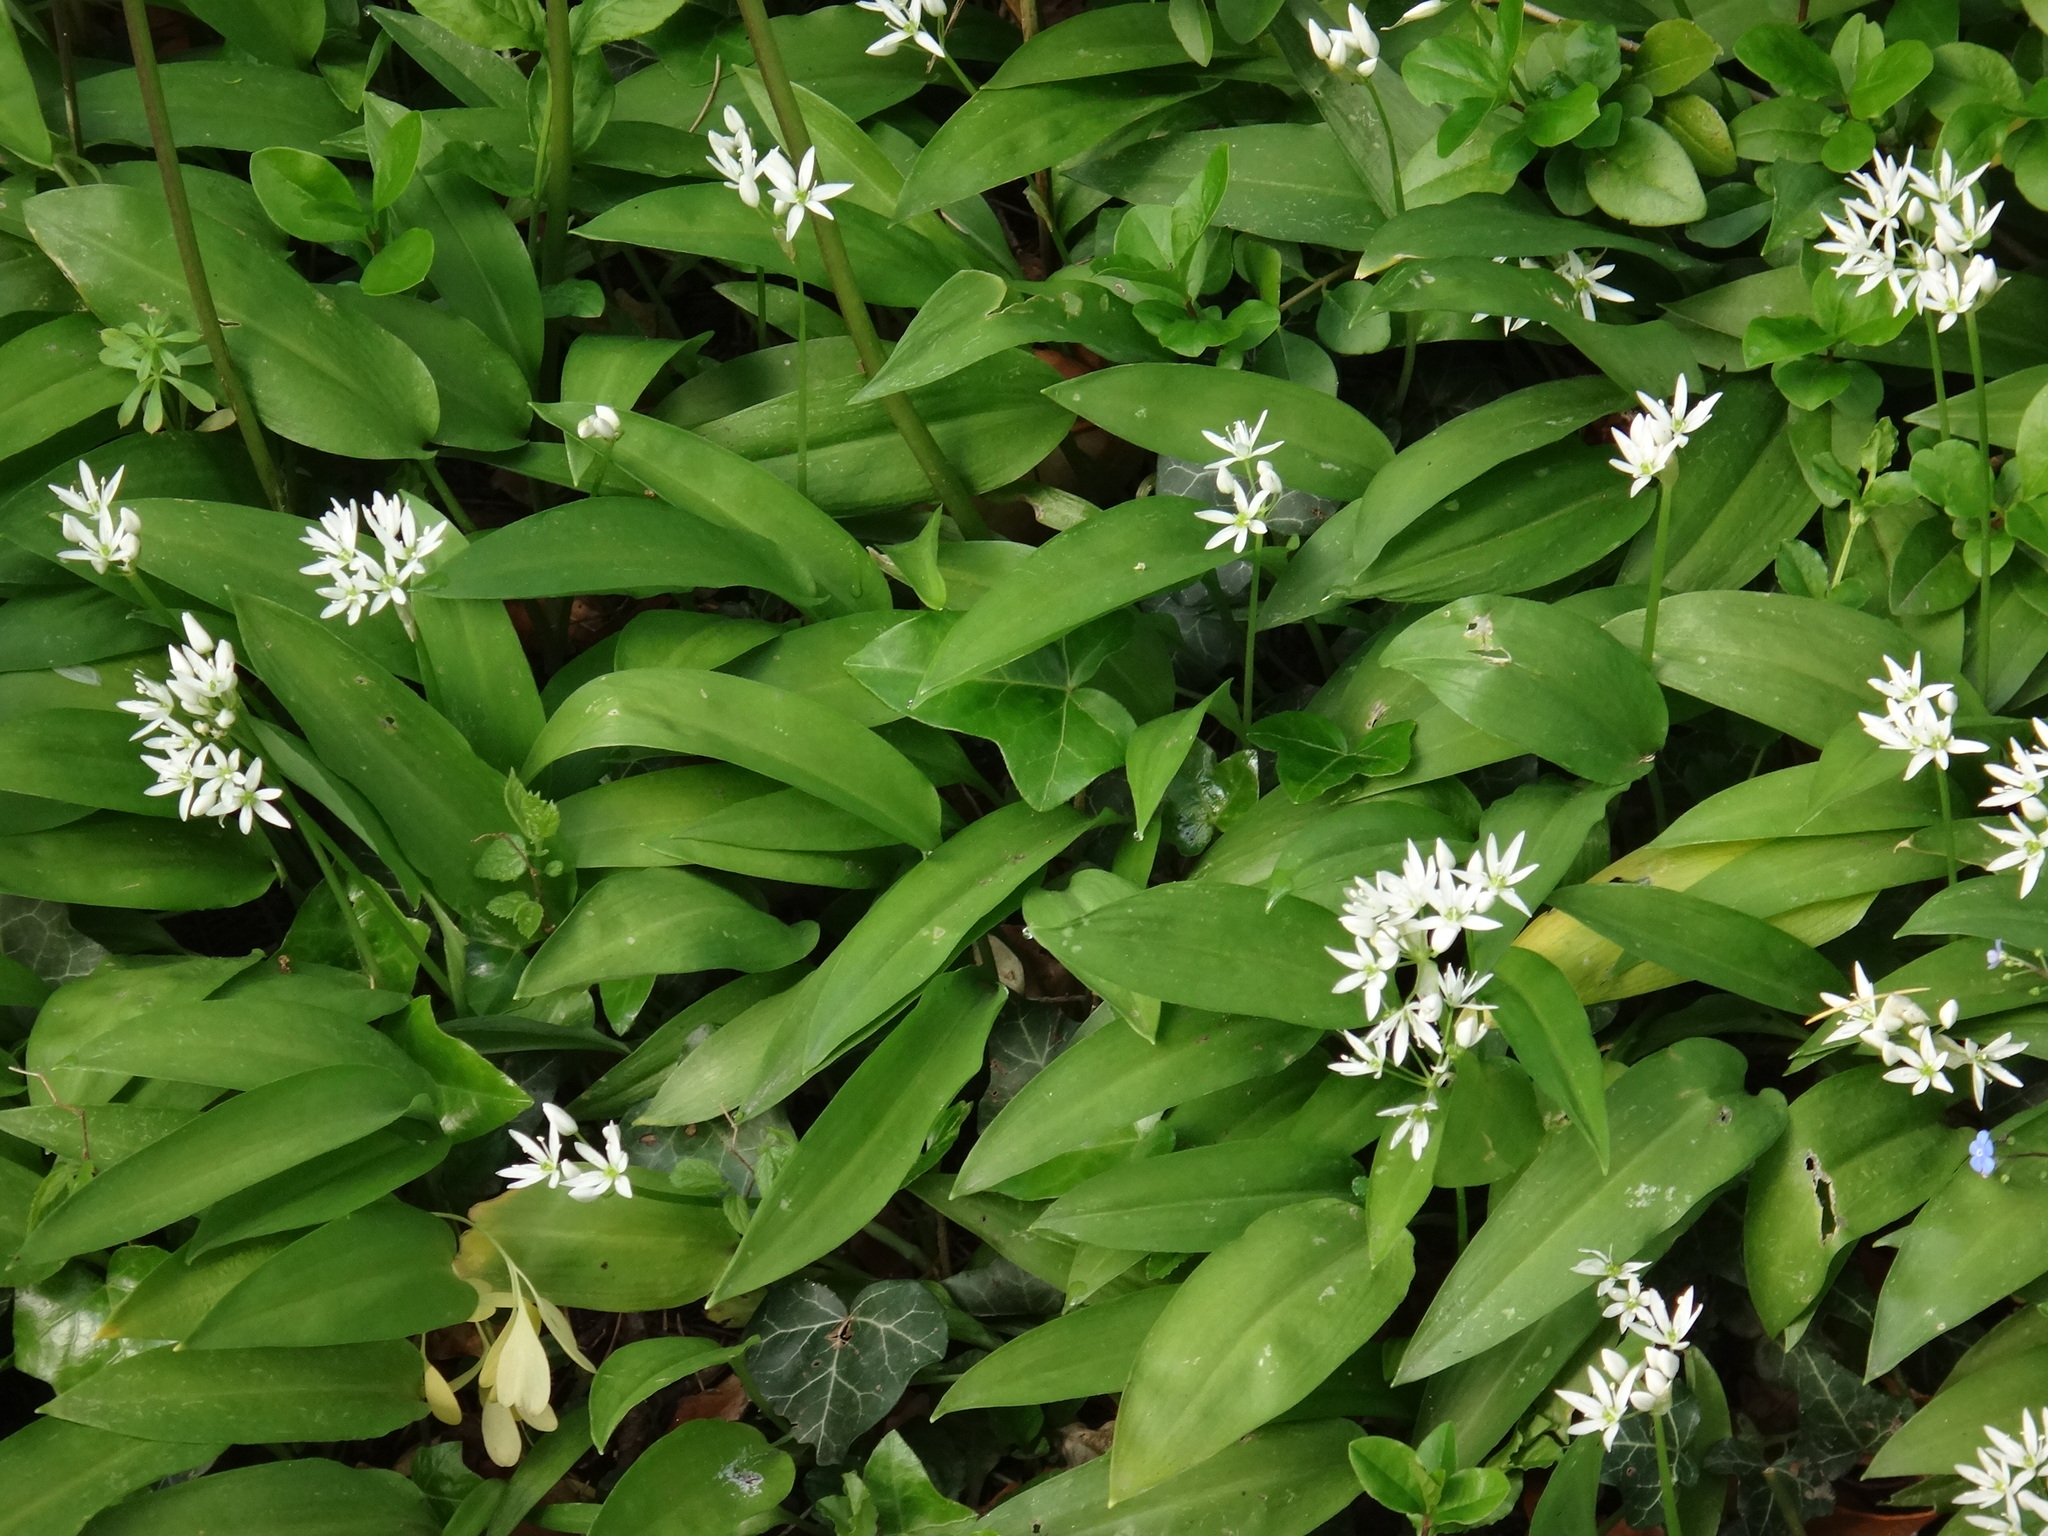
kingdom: Plantae
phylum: Tracheophyta
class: Liliopsida
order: Asparagales
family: Amaryllidaceae
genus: Allium
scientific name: Allium ursinum
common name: Ramsons
